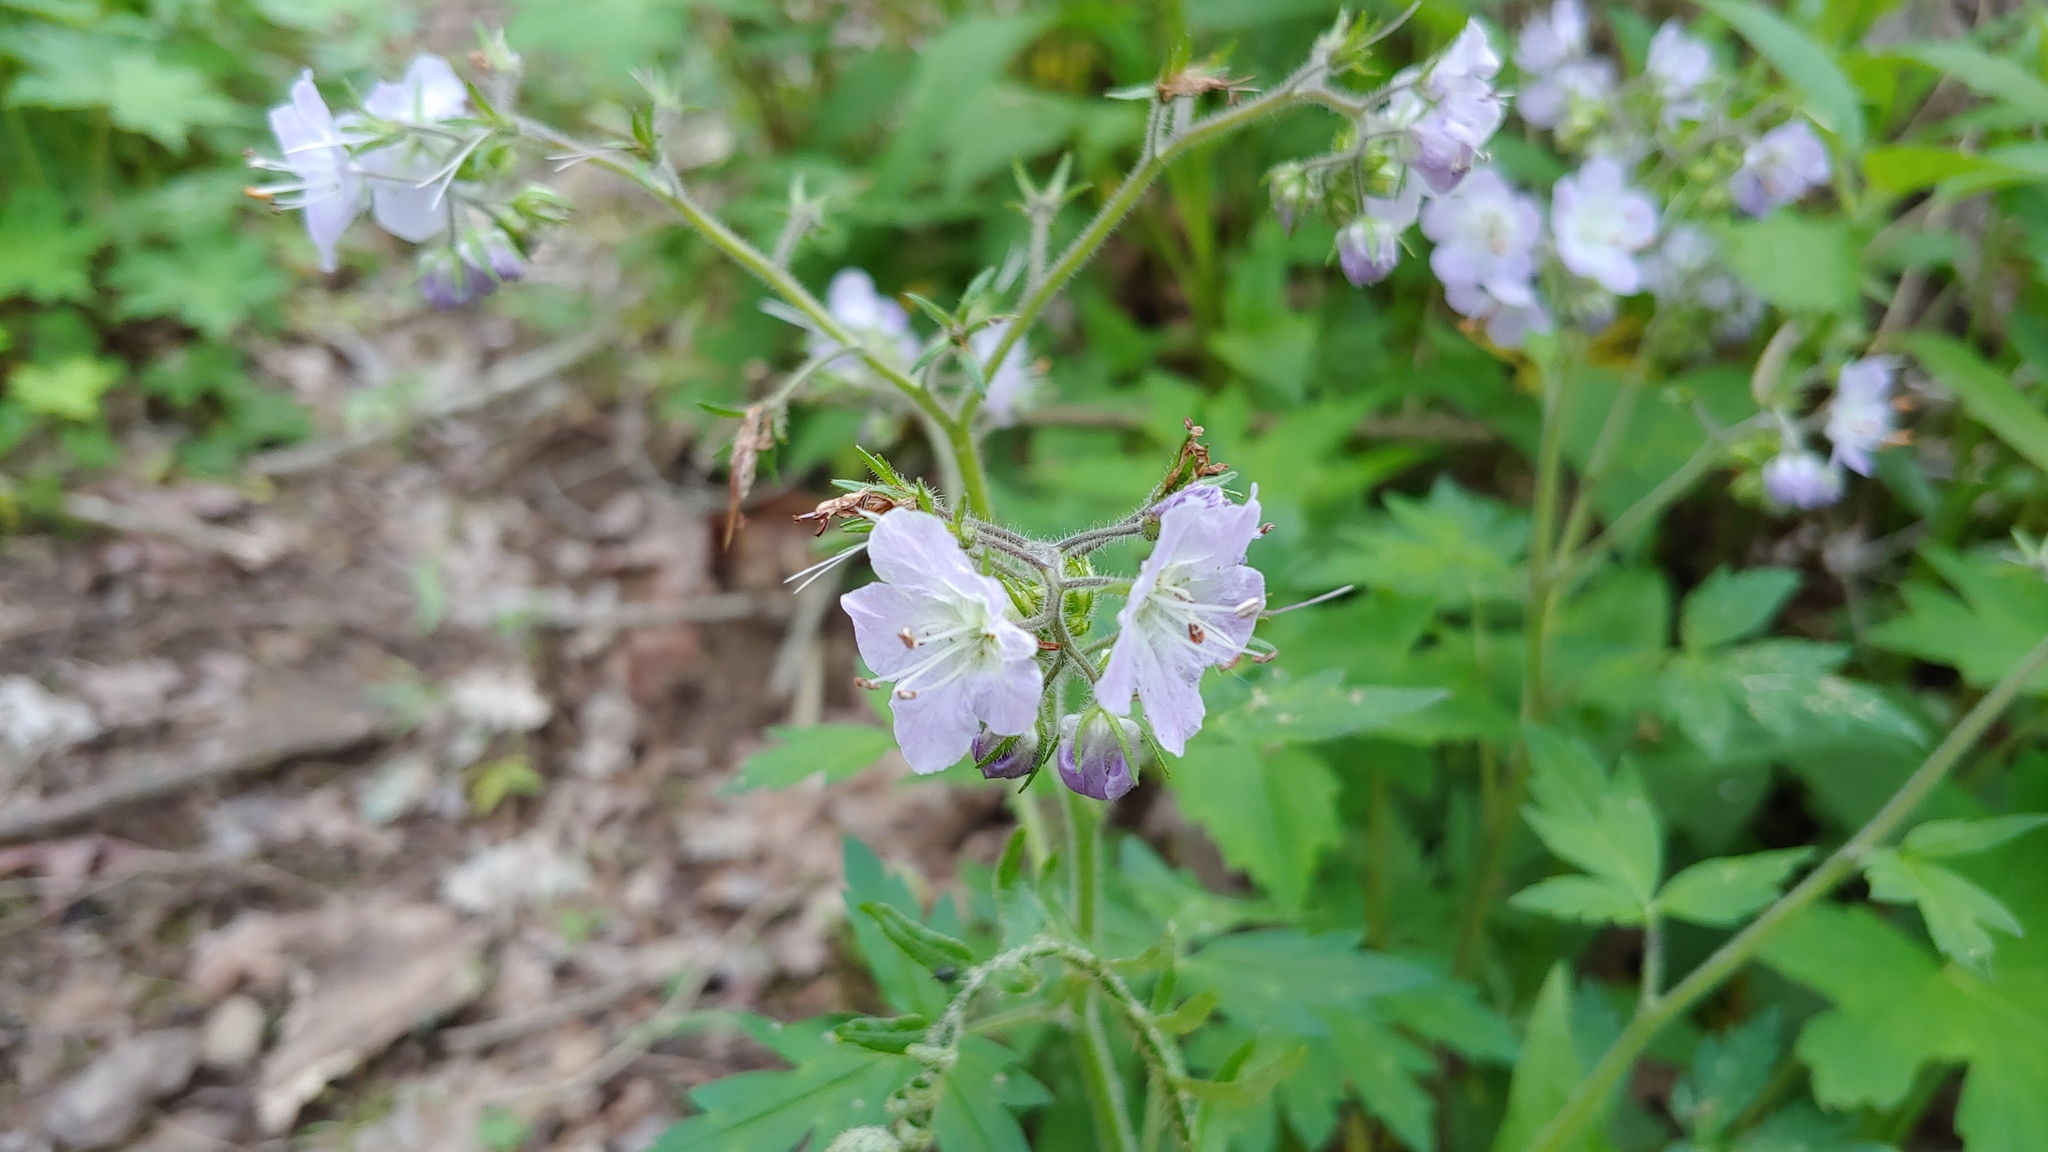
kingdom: Plantae
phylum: Tracheophyta
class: Magnoliopsida
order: Boraginales
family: Hydrophyllaceae
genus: Phacelia
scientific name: Phacelia bipinnatifida
